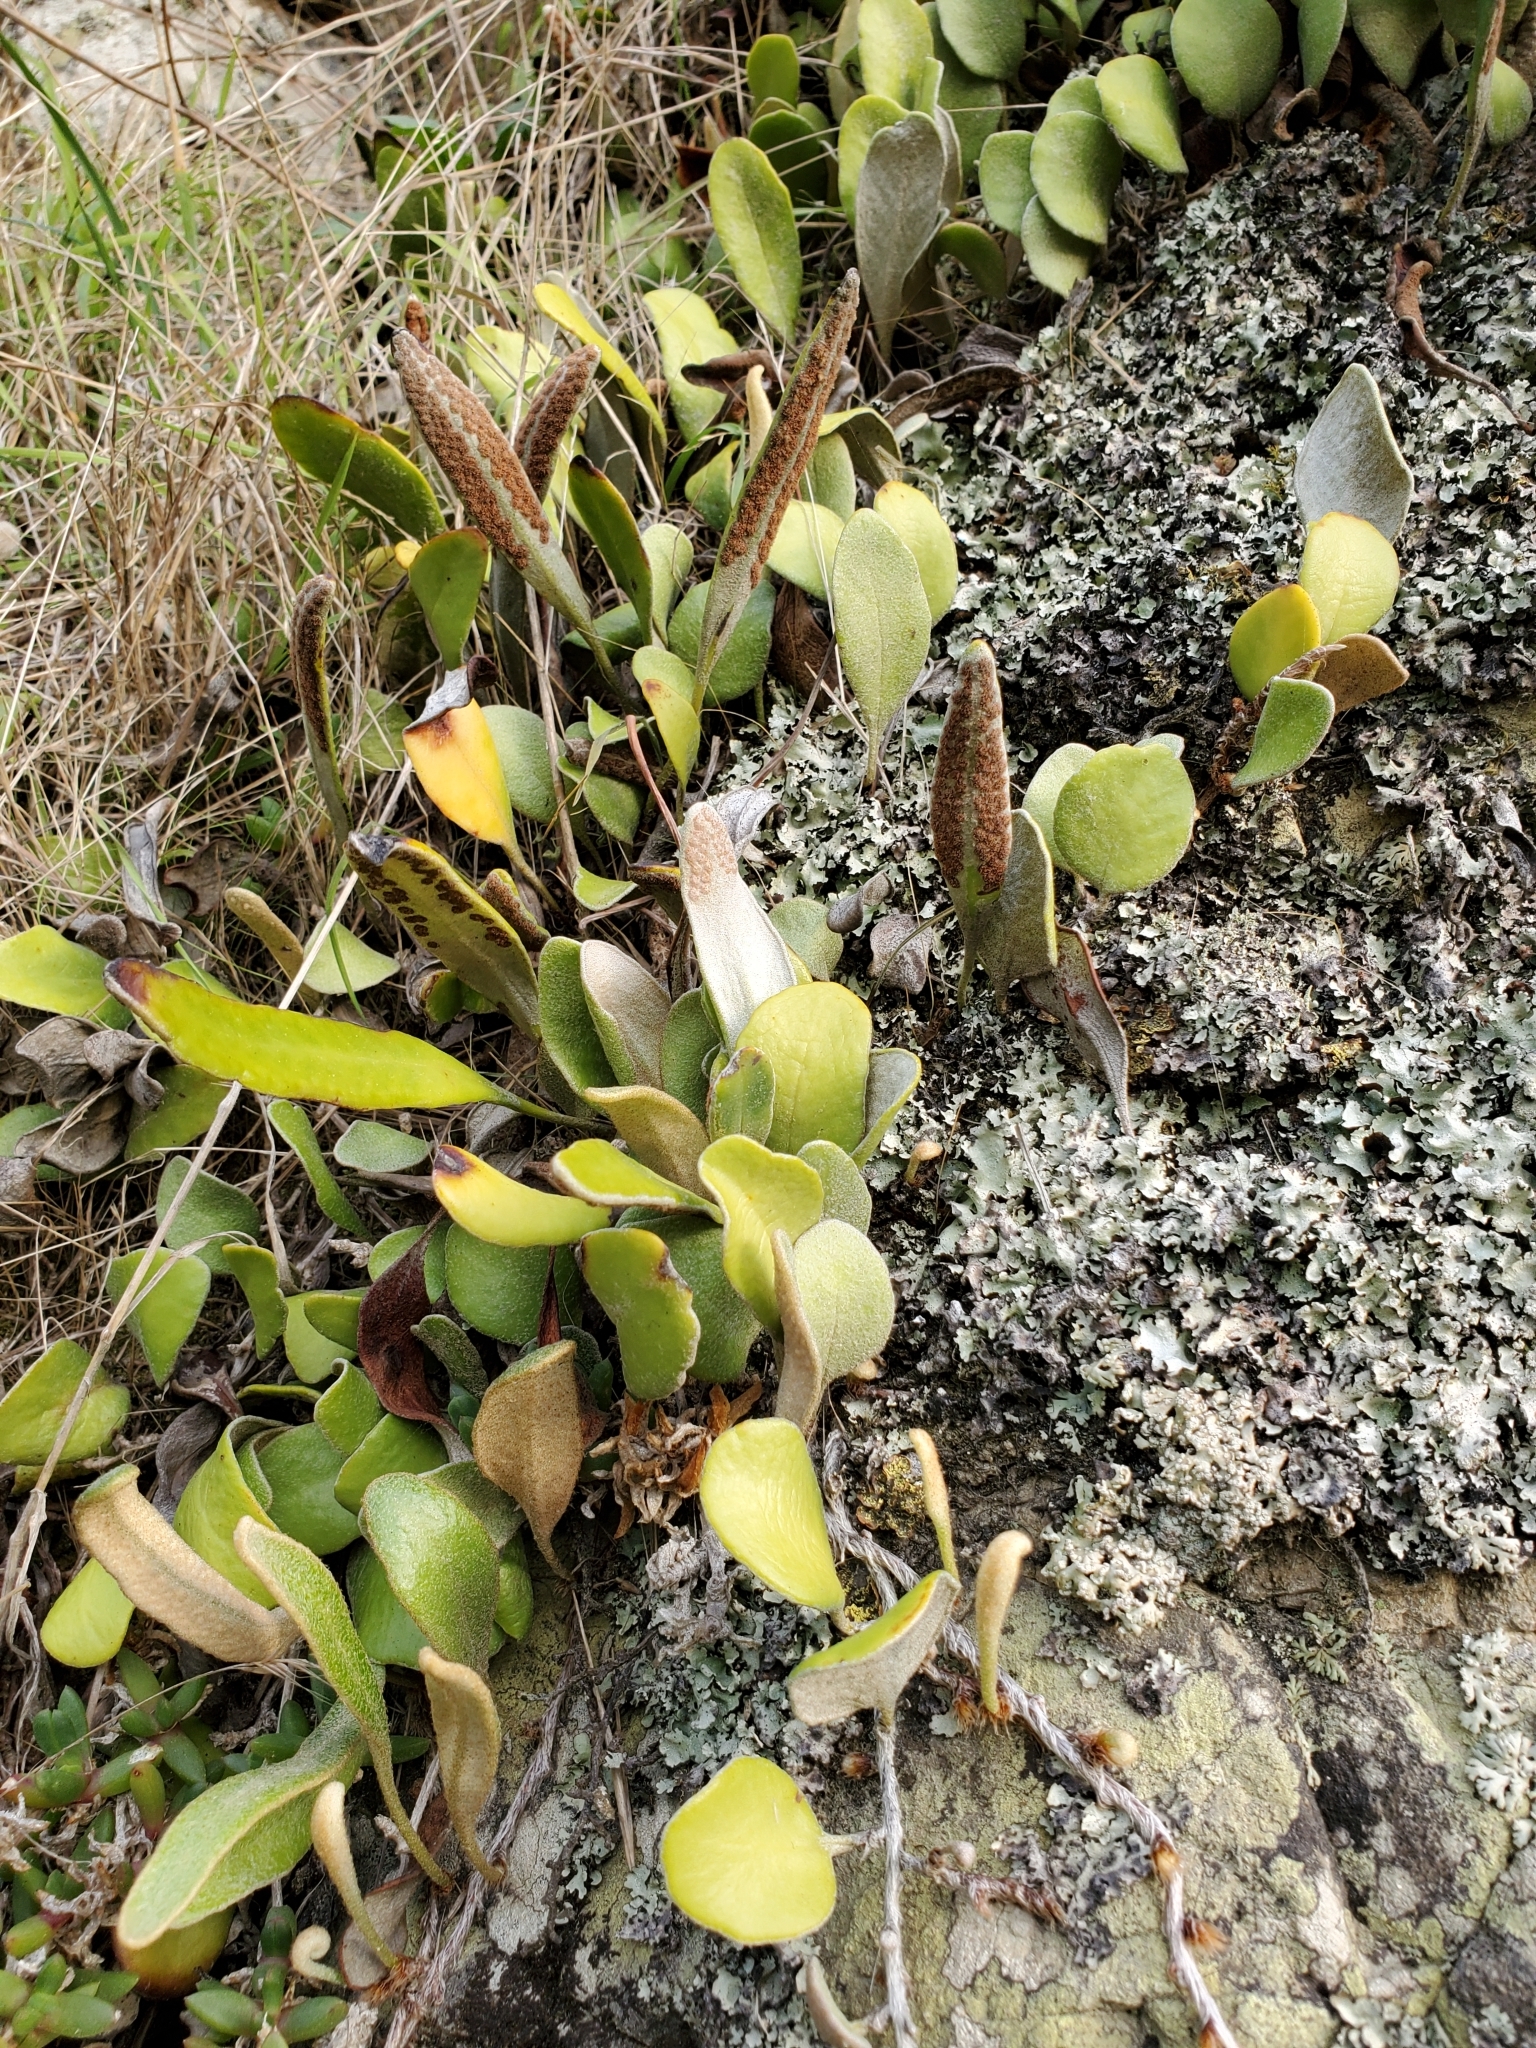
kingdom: Plantae
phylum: Tracheophyta
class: Polypodiopsida
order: Polypodiales
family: Polypodiaceae
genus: Pyrrosia
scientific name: Pyrrosia eleagnifolia
